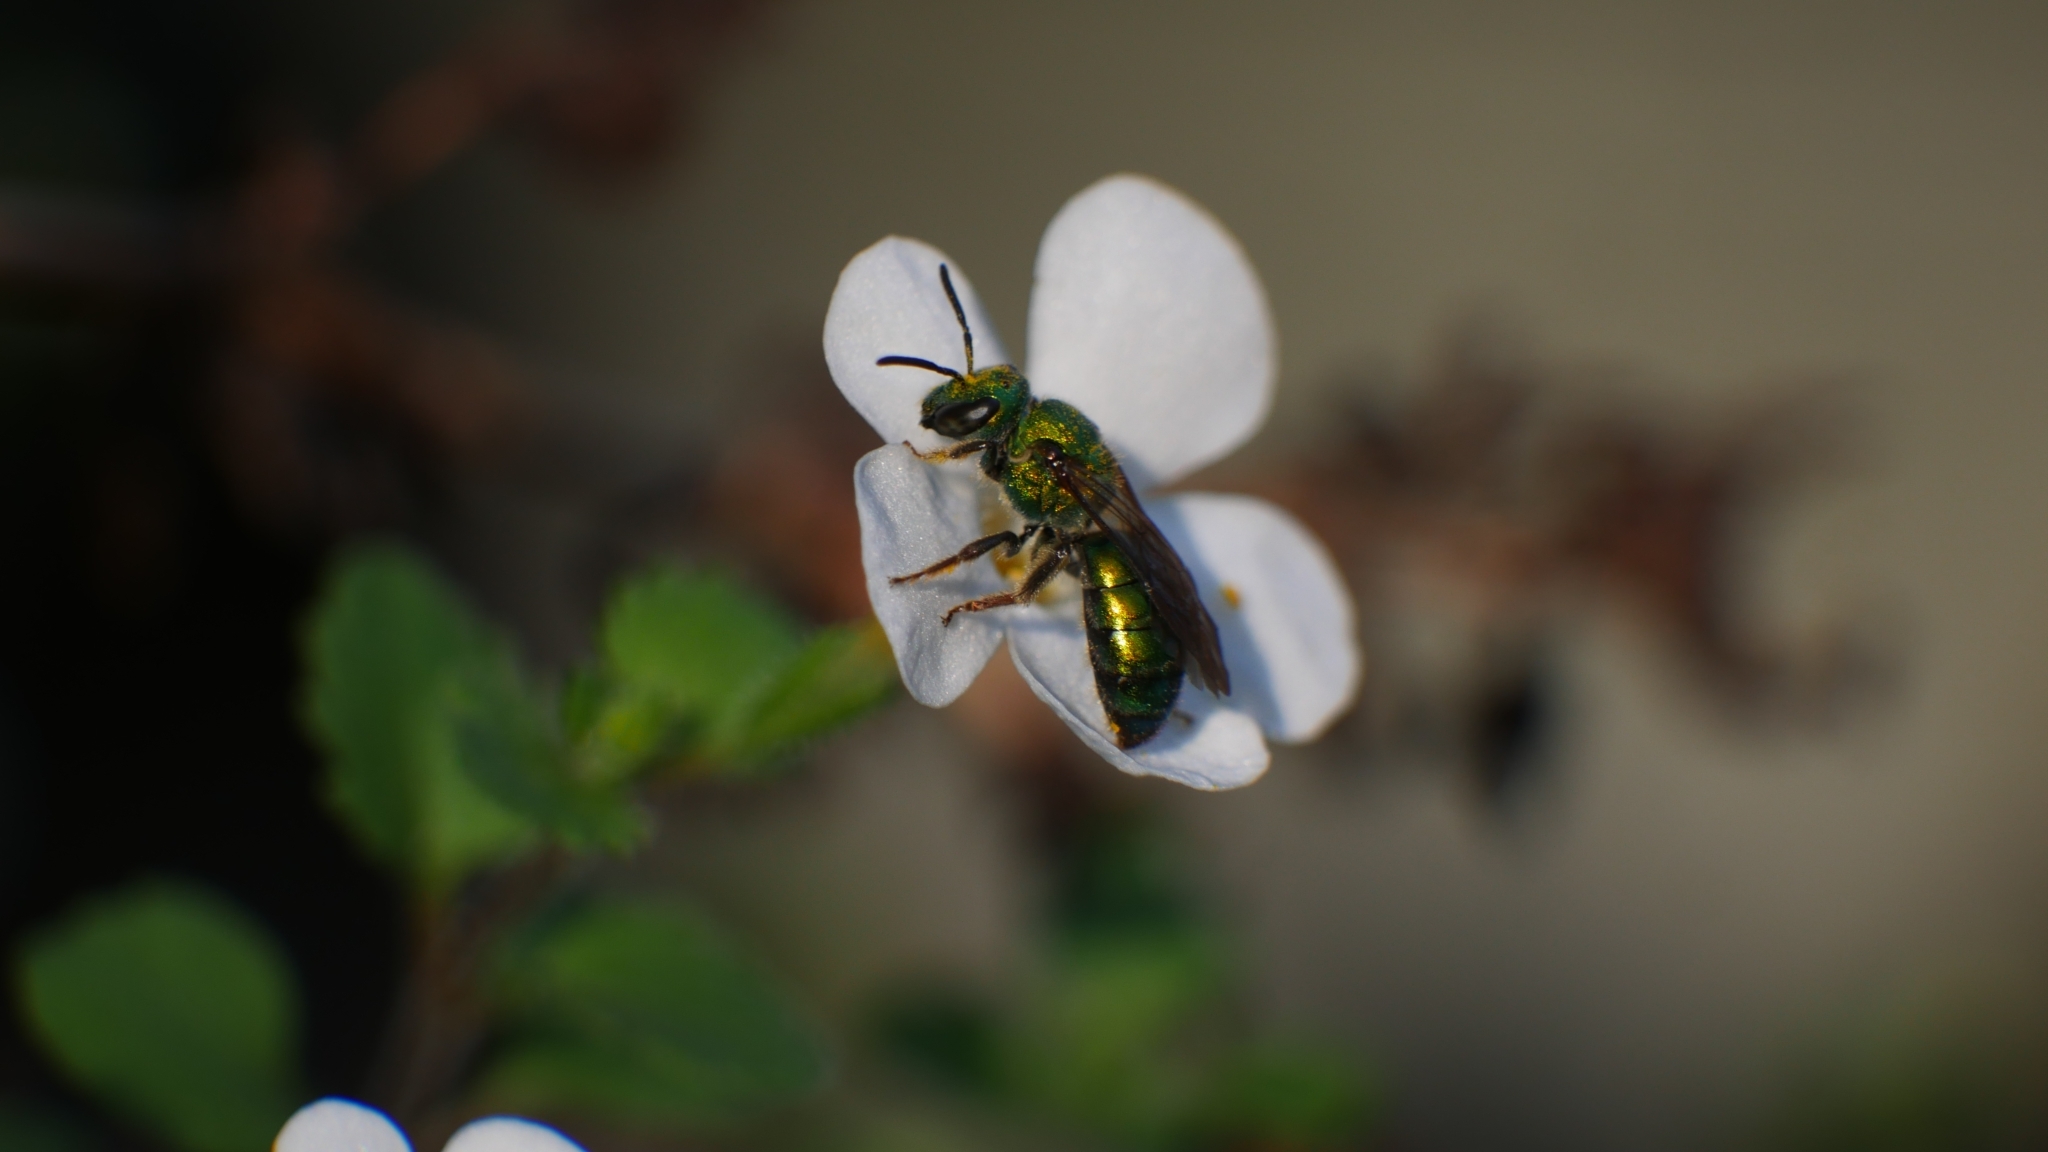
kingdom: Animalia
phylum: Arthropoda
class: Insecta
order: Hymenoptera
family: Halictidae
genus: Augochlora
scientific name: Augochlora pura
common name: Pure green sweat bee
